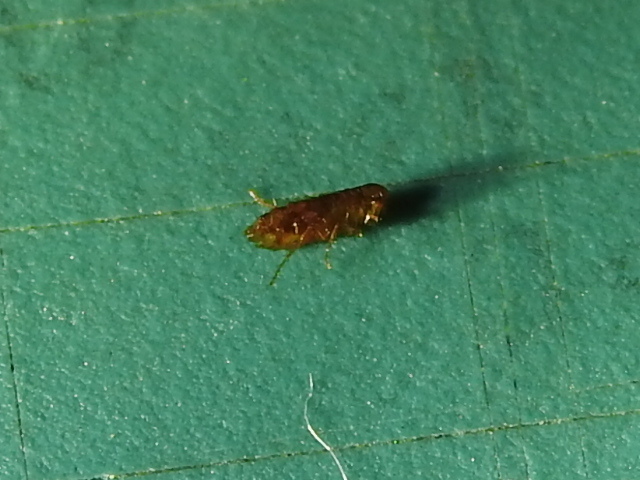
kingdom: Animalia
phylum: Arthropoda
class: Insecta
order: Siphonaptera
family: Pulicidae
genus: Ctenocephalides
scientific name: Ctenocephalides felis
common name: Cat flea
